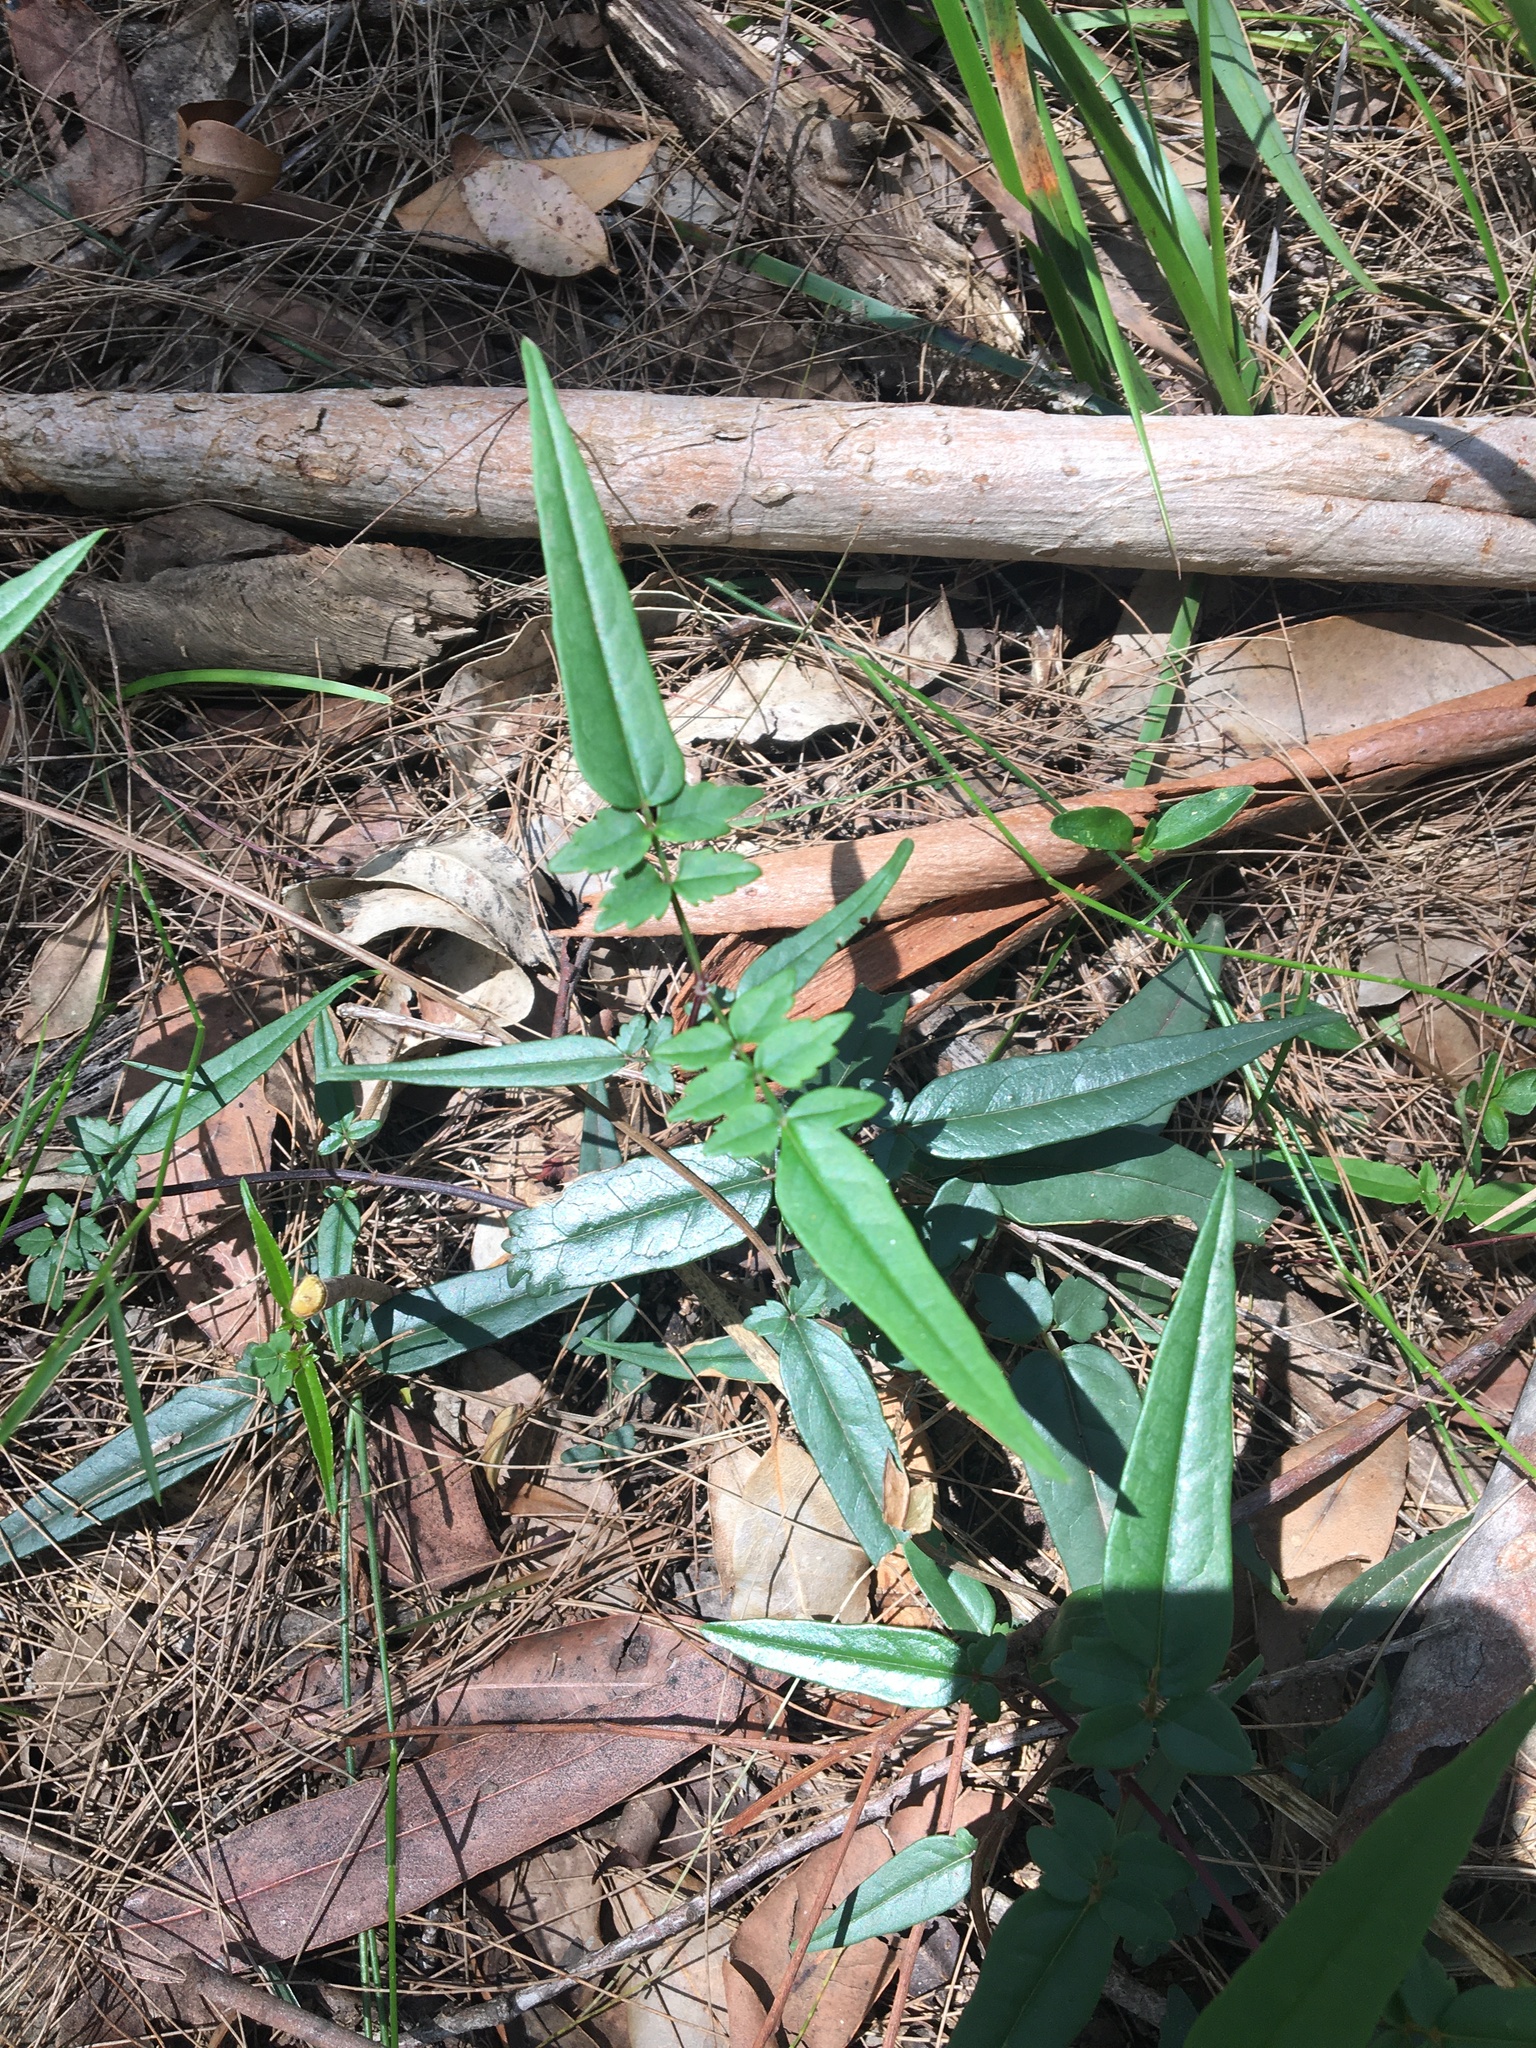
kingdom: Plantae
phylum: Tracheophyta
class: Magnoliopsida
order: Lamiales
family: Bignoniaceae
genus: Pandorea
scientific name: Pandorea pandorana
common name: Wonga-wonga-vine
